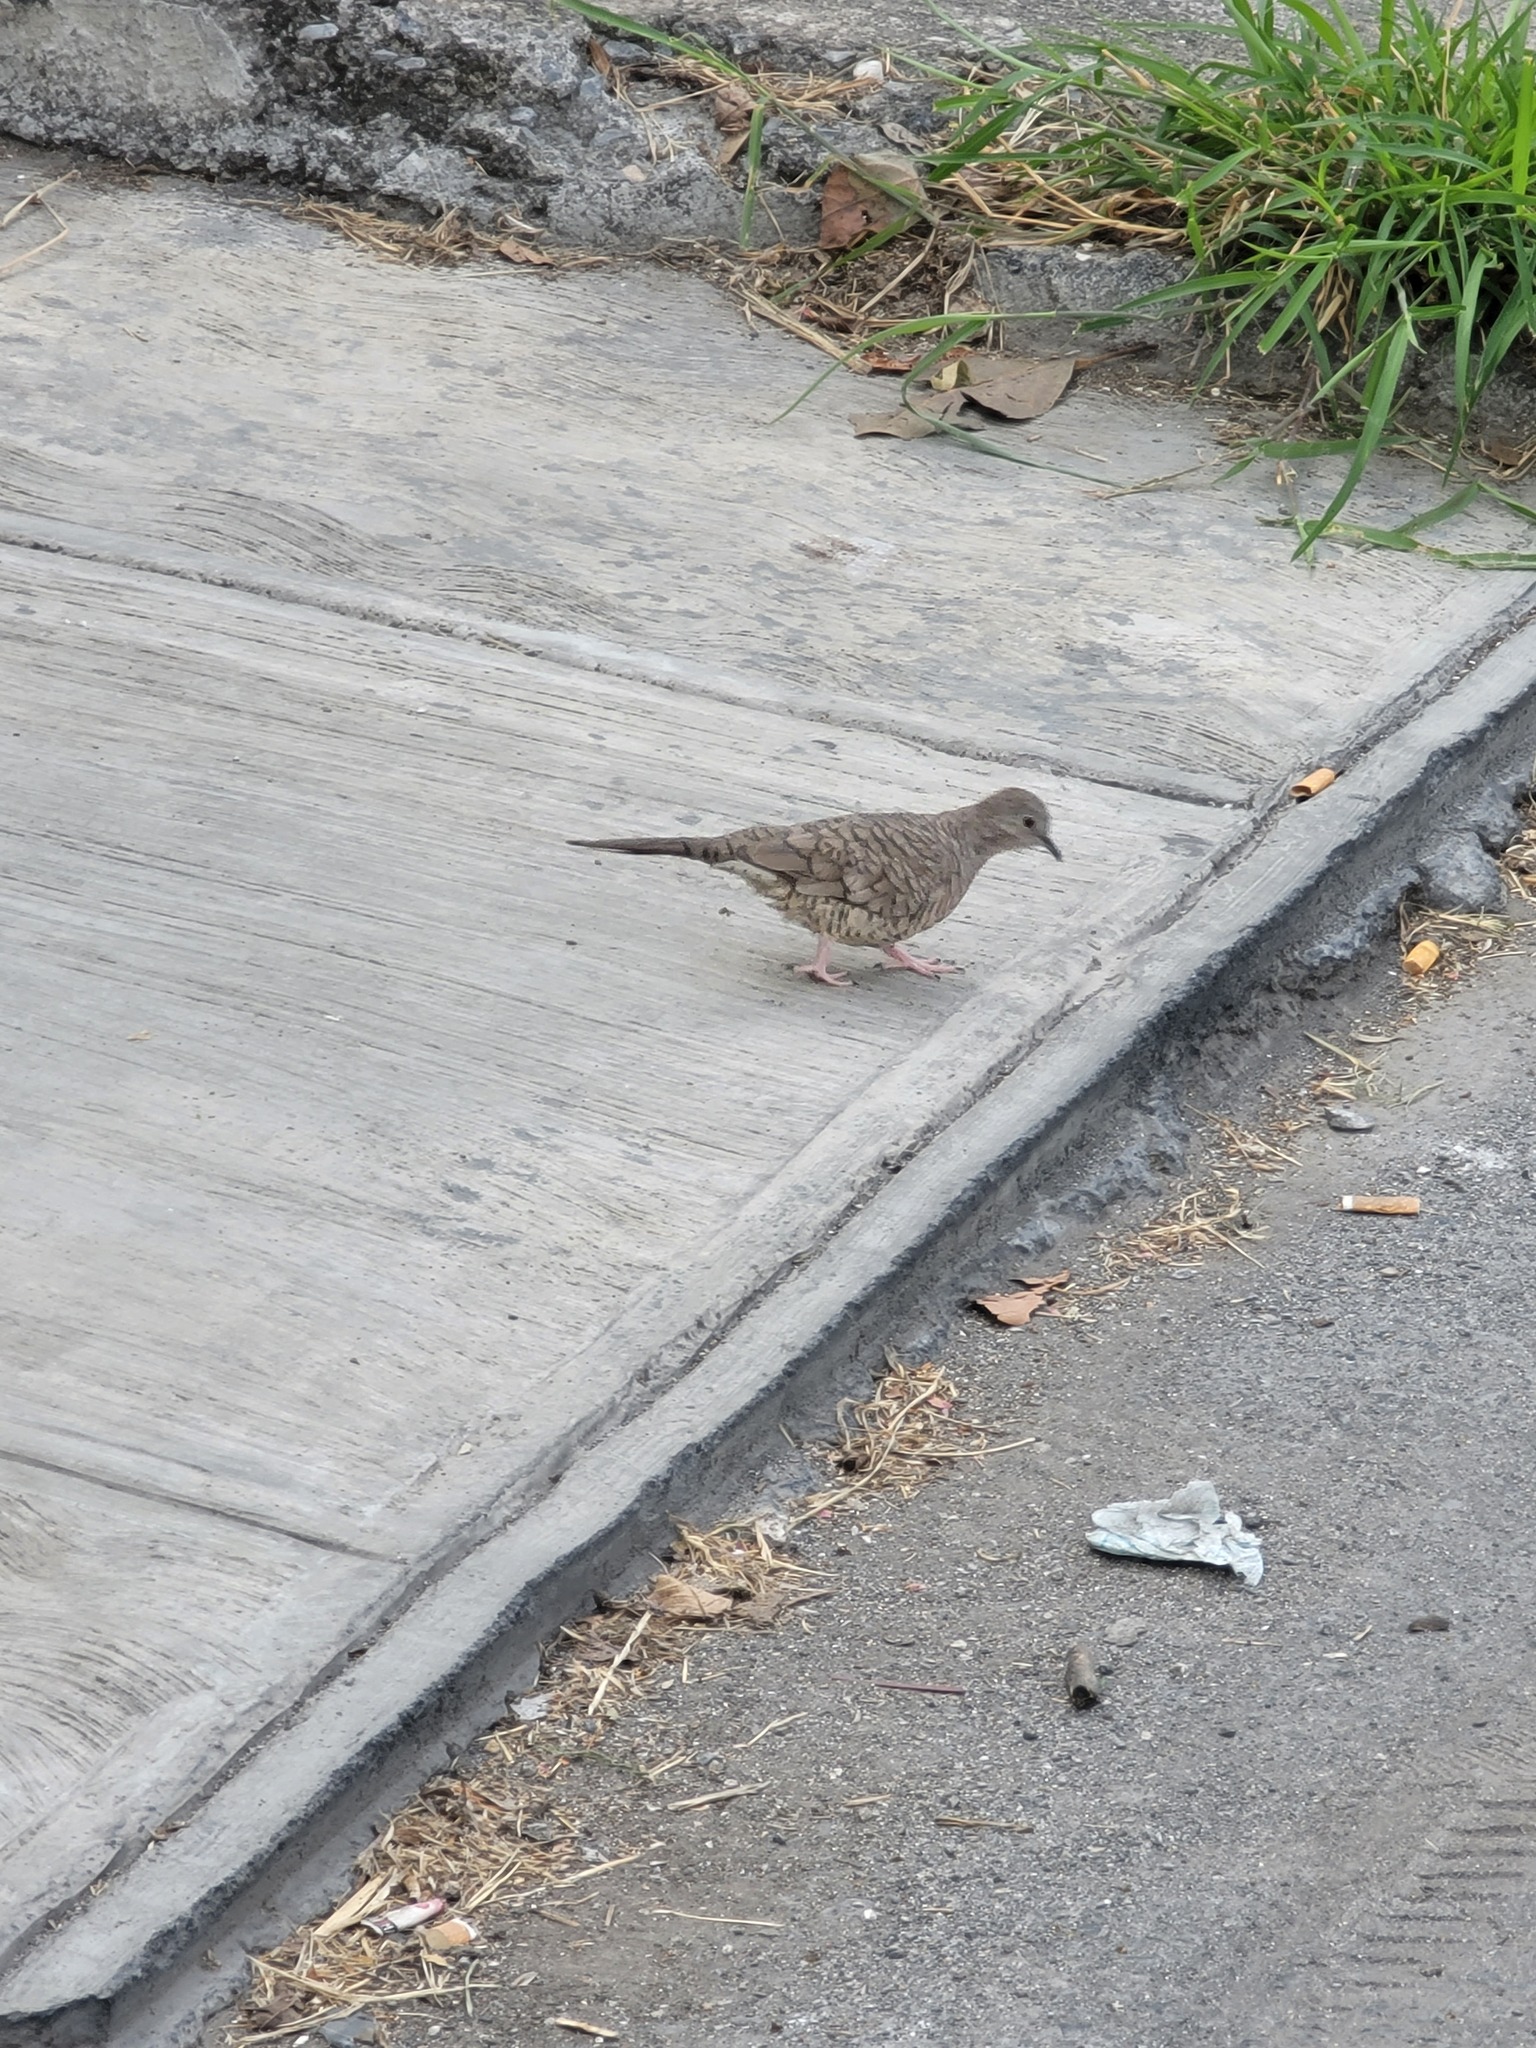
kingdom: Animalia
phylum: Chordata
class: Aves
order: Columbiformes
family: Columbidae
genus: Columbina
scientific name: Columbina inca
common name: Inca dove
